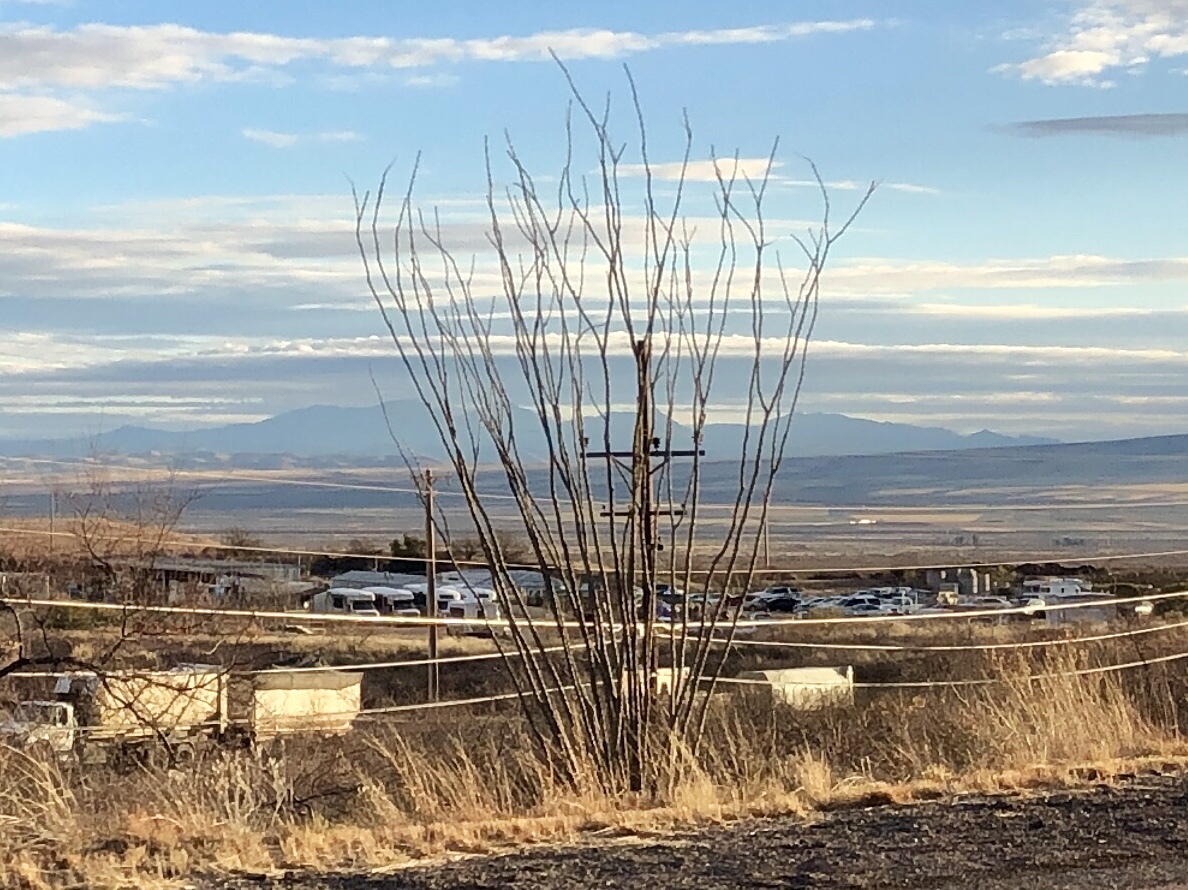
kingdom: Plantae
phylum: Tracheophyta
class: Magnoliopsida
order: Ericales
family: Fouquieriaceae
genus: Fouquieria
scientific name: Fouquieria splendens
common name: Vine-cactus
